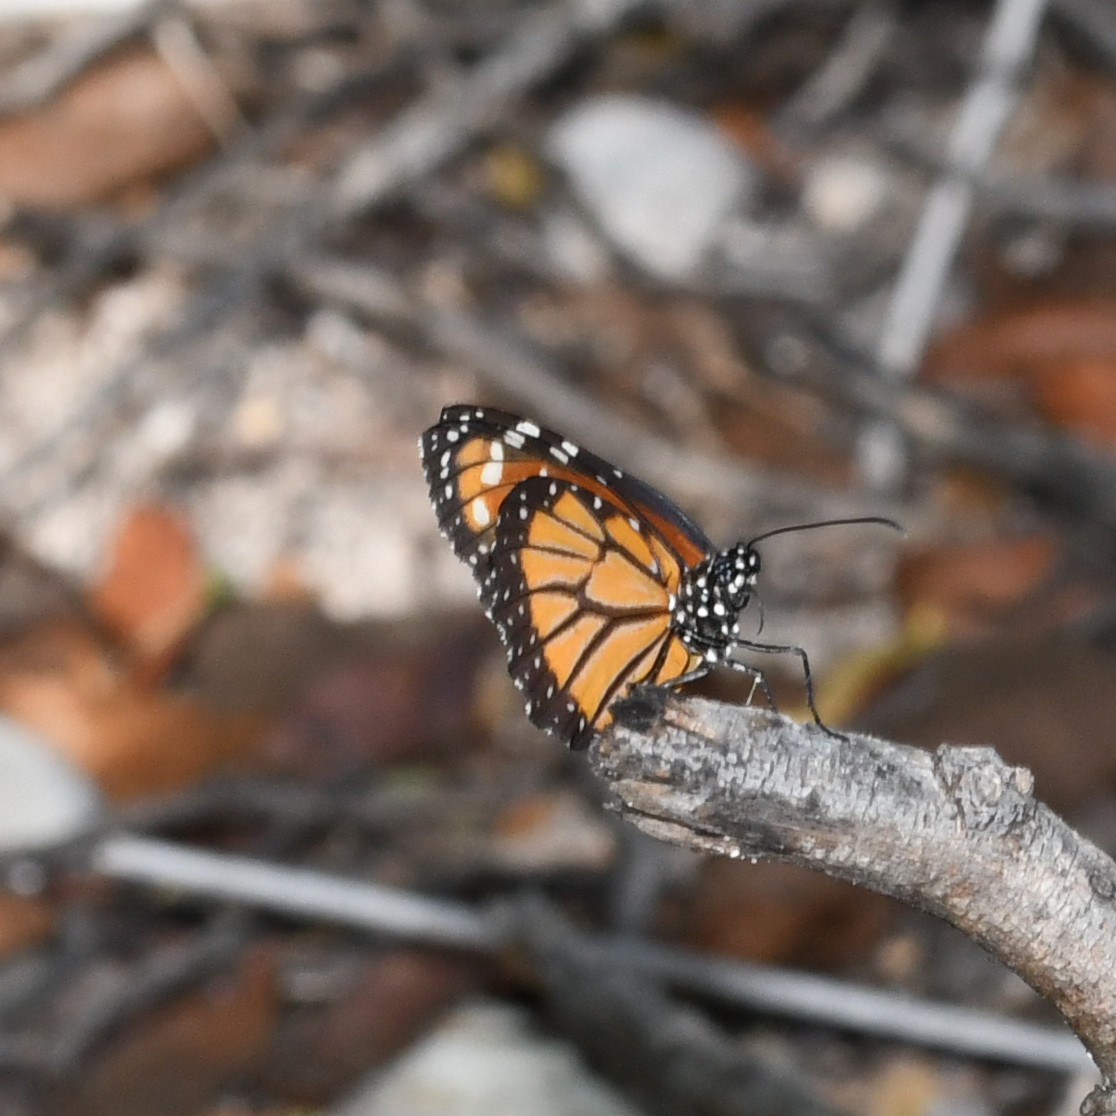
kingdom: Animalia
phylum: Arthropoda
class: Insecta
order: Lepidoptera
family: Nymphalidae
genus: Danaus
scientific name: Danaus gilippus
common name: Queen
